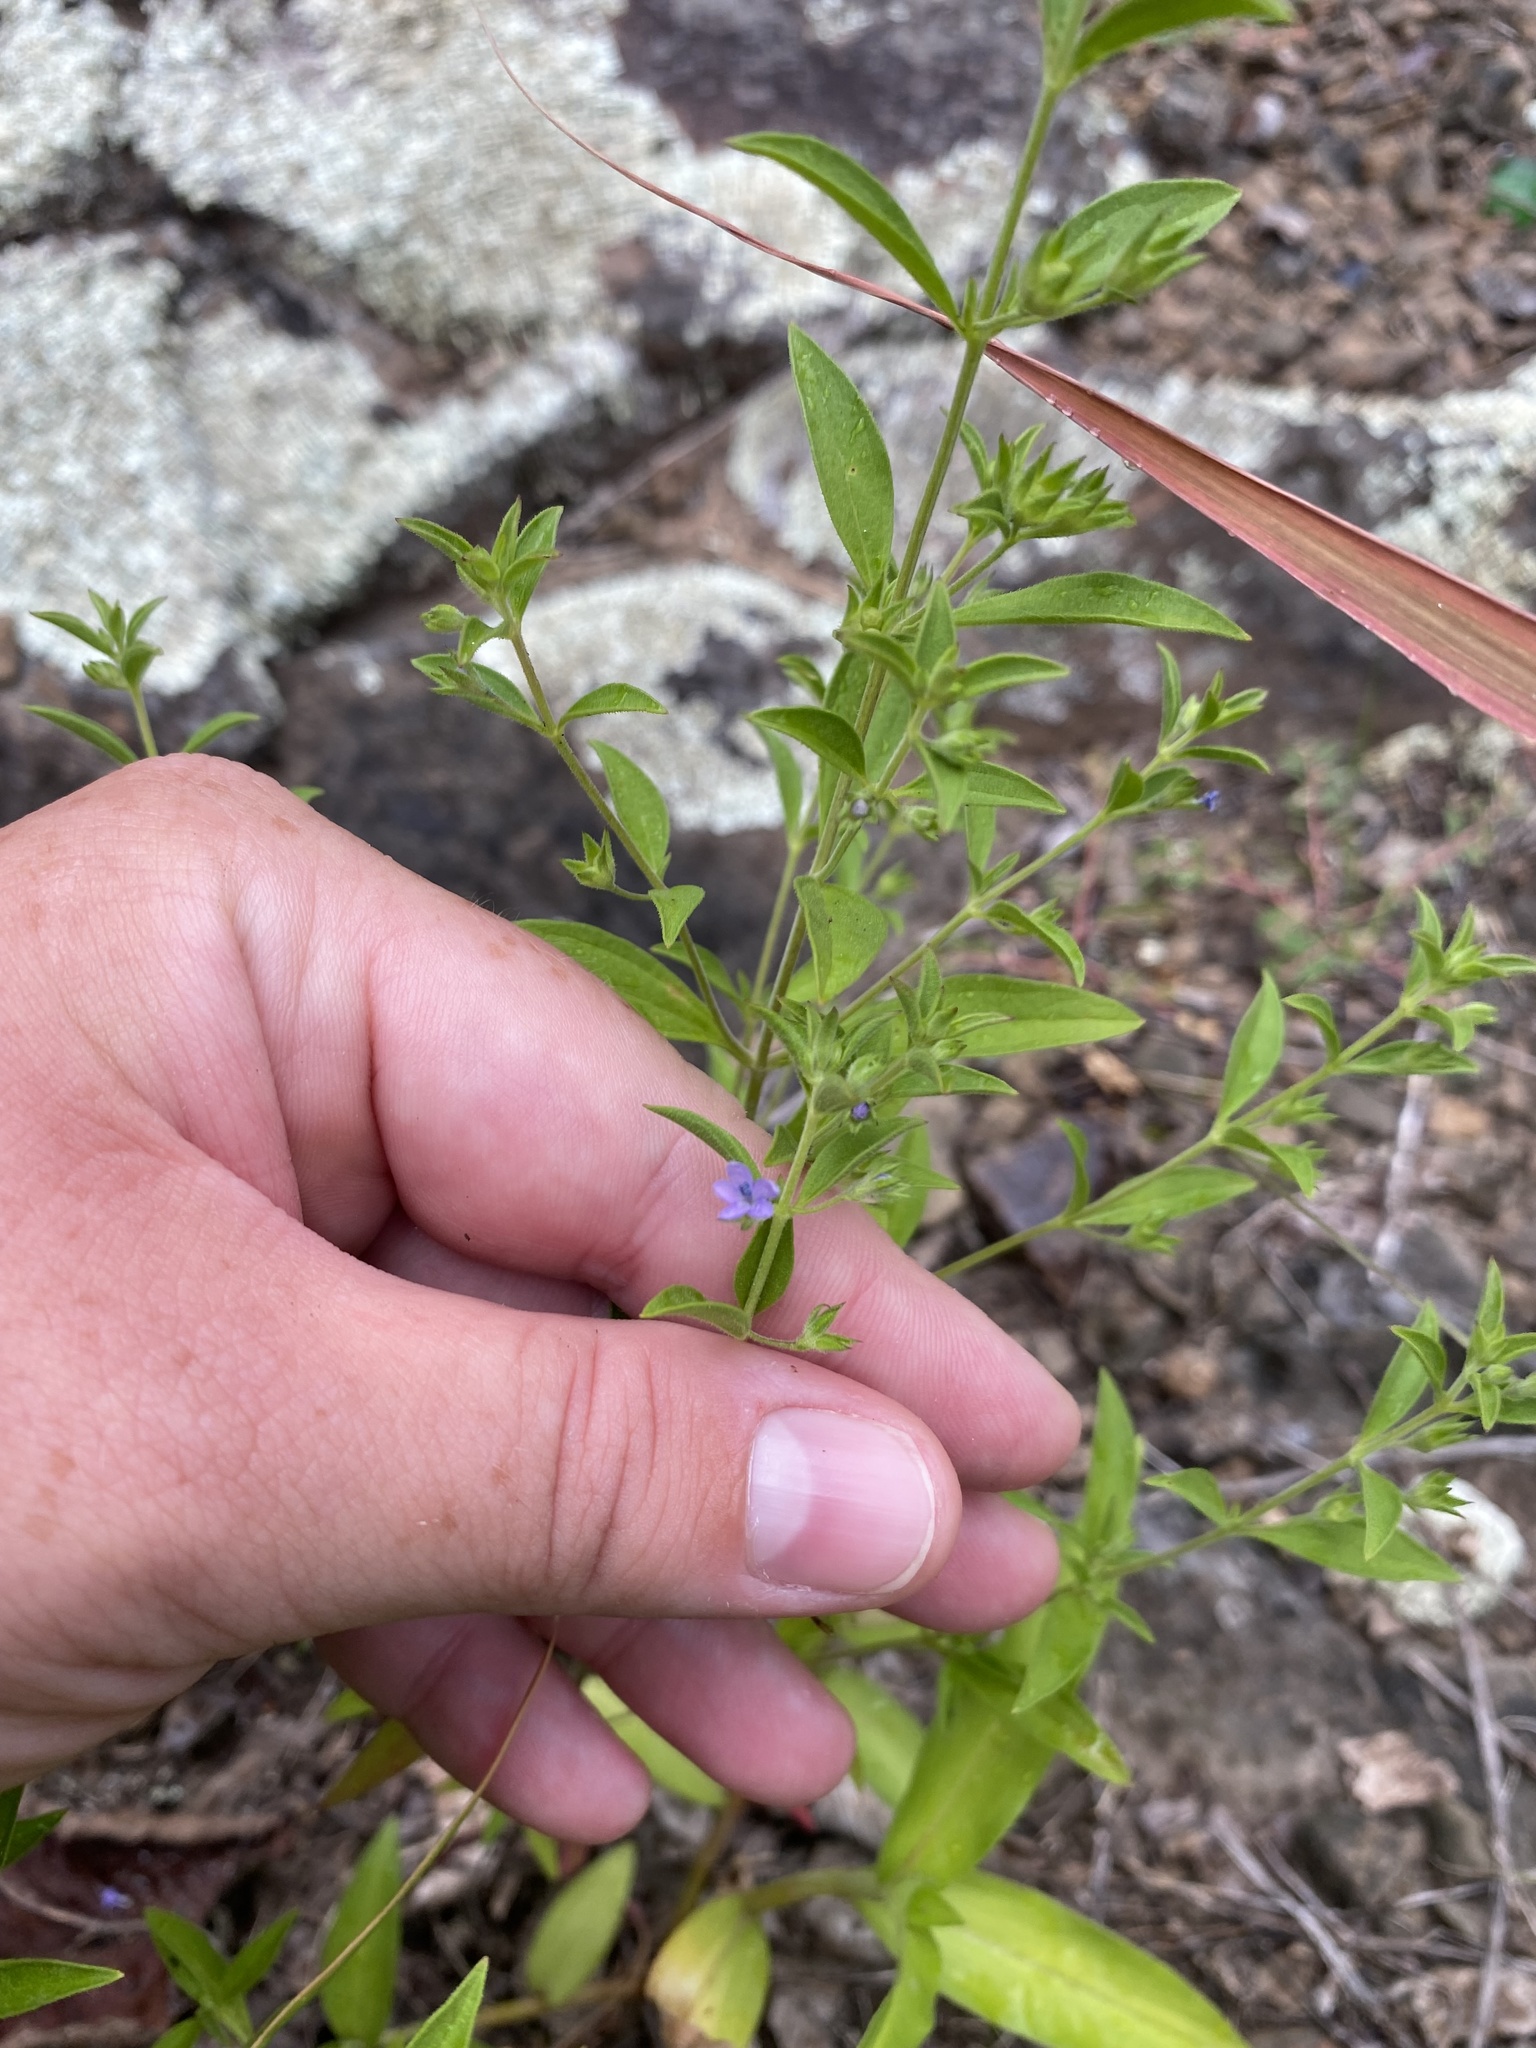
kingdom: Plantae
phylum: Tracheophyta
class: Magnoliopsida
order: Lamiales
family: Lamiaceae
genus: Trichostema
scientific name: Trichostema brachiatum
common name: False pennyroyal
